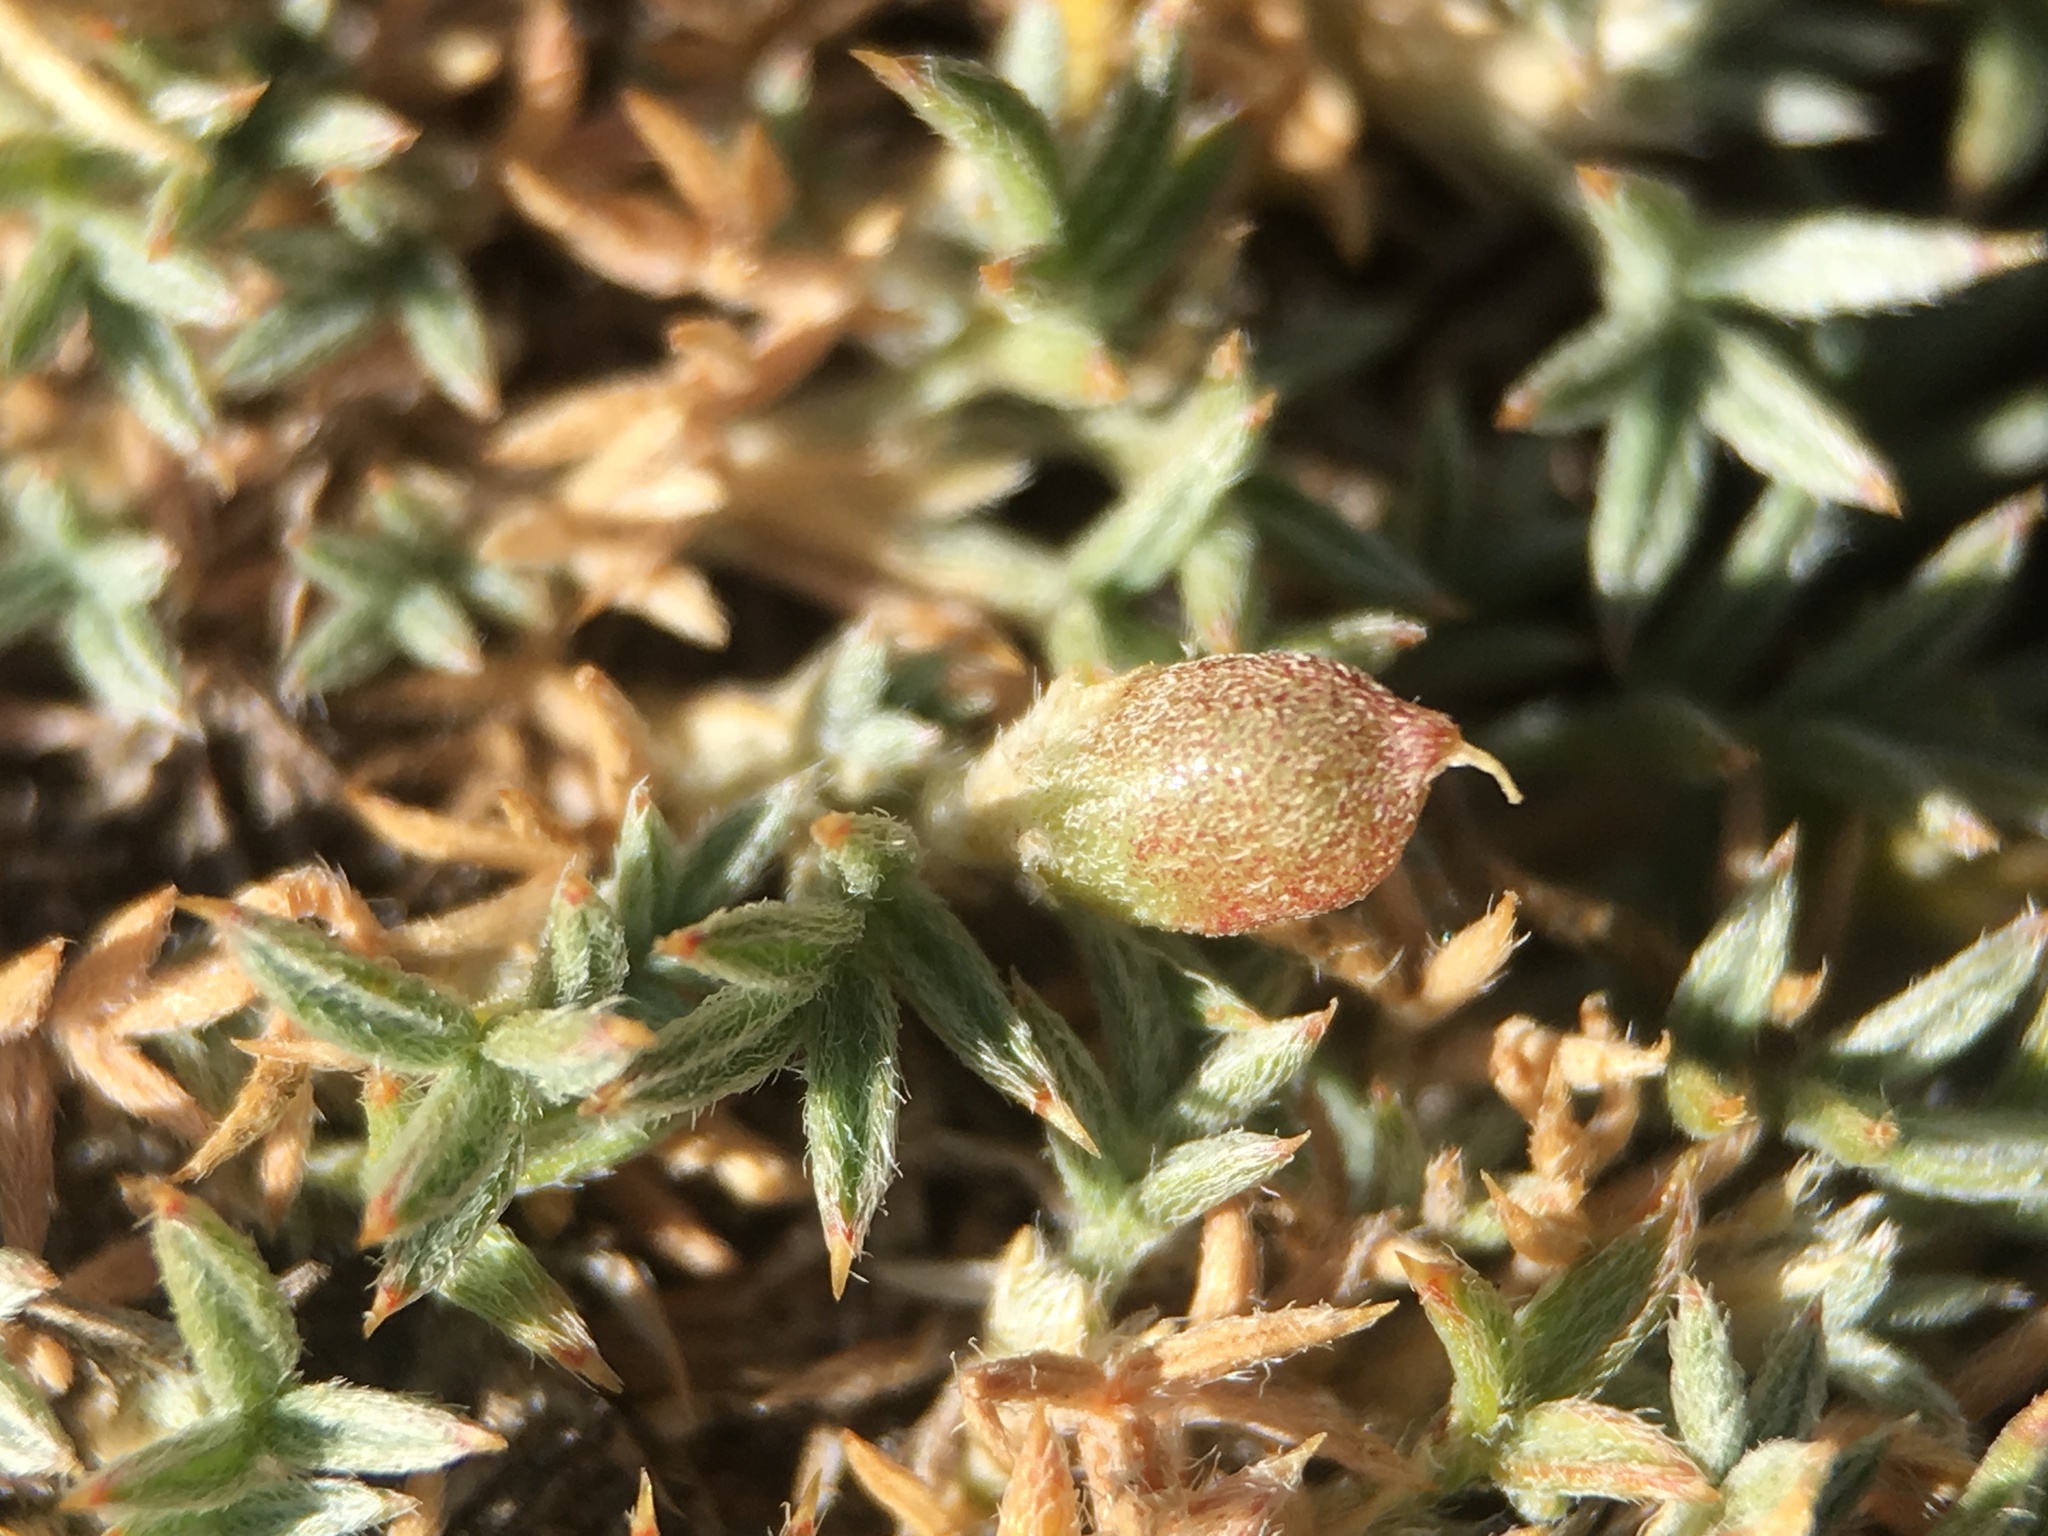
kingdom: Plantae
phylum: Tracheophyta
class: Magnoliopsida
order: Fabales
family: Fabaceae
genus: Astragalus
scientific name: Astragalus kentrophyta
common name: Prickly milk-vetch
